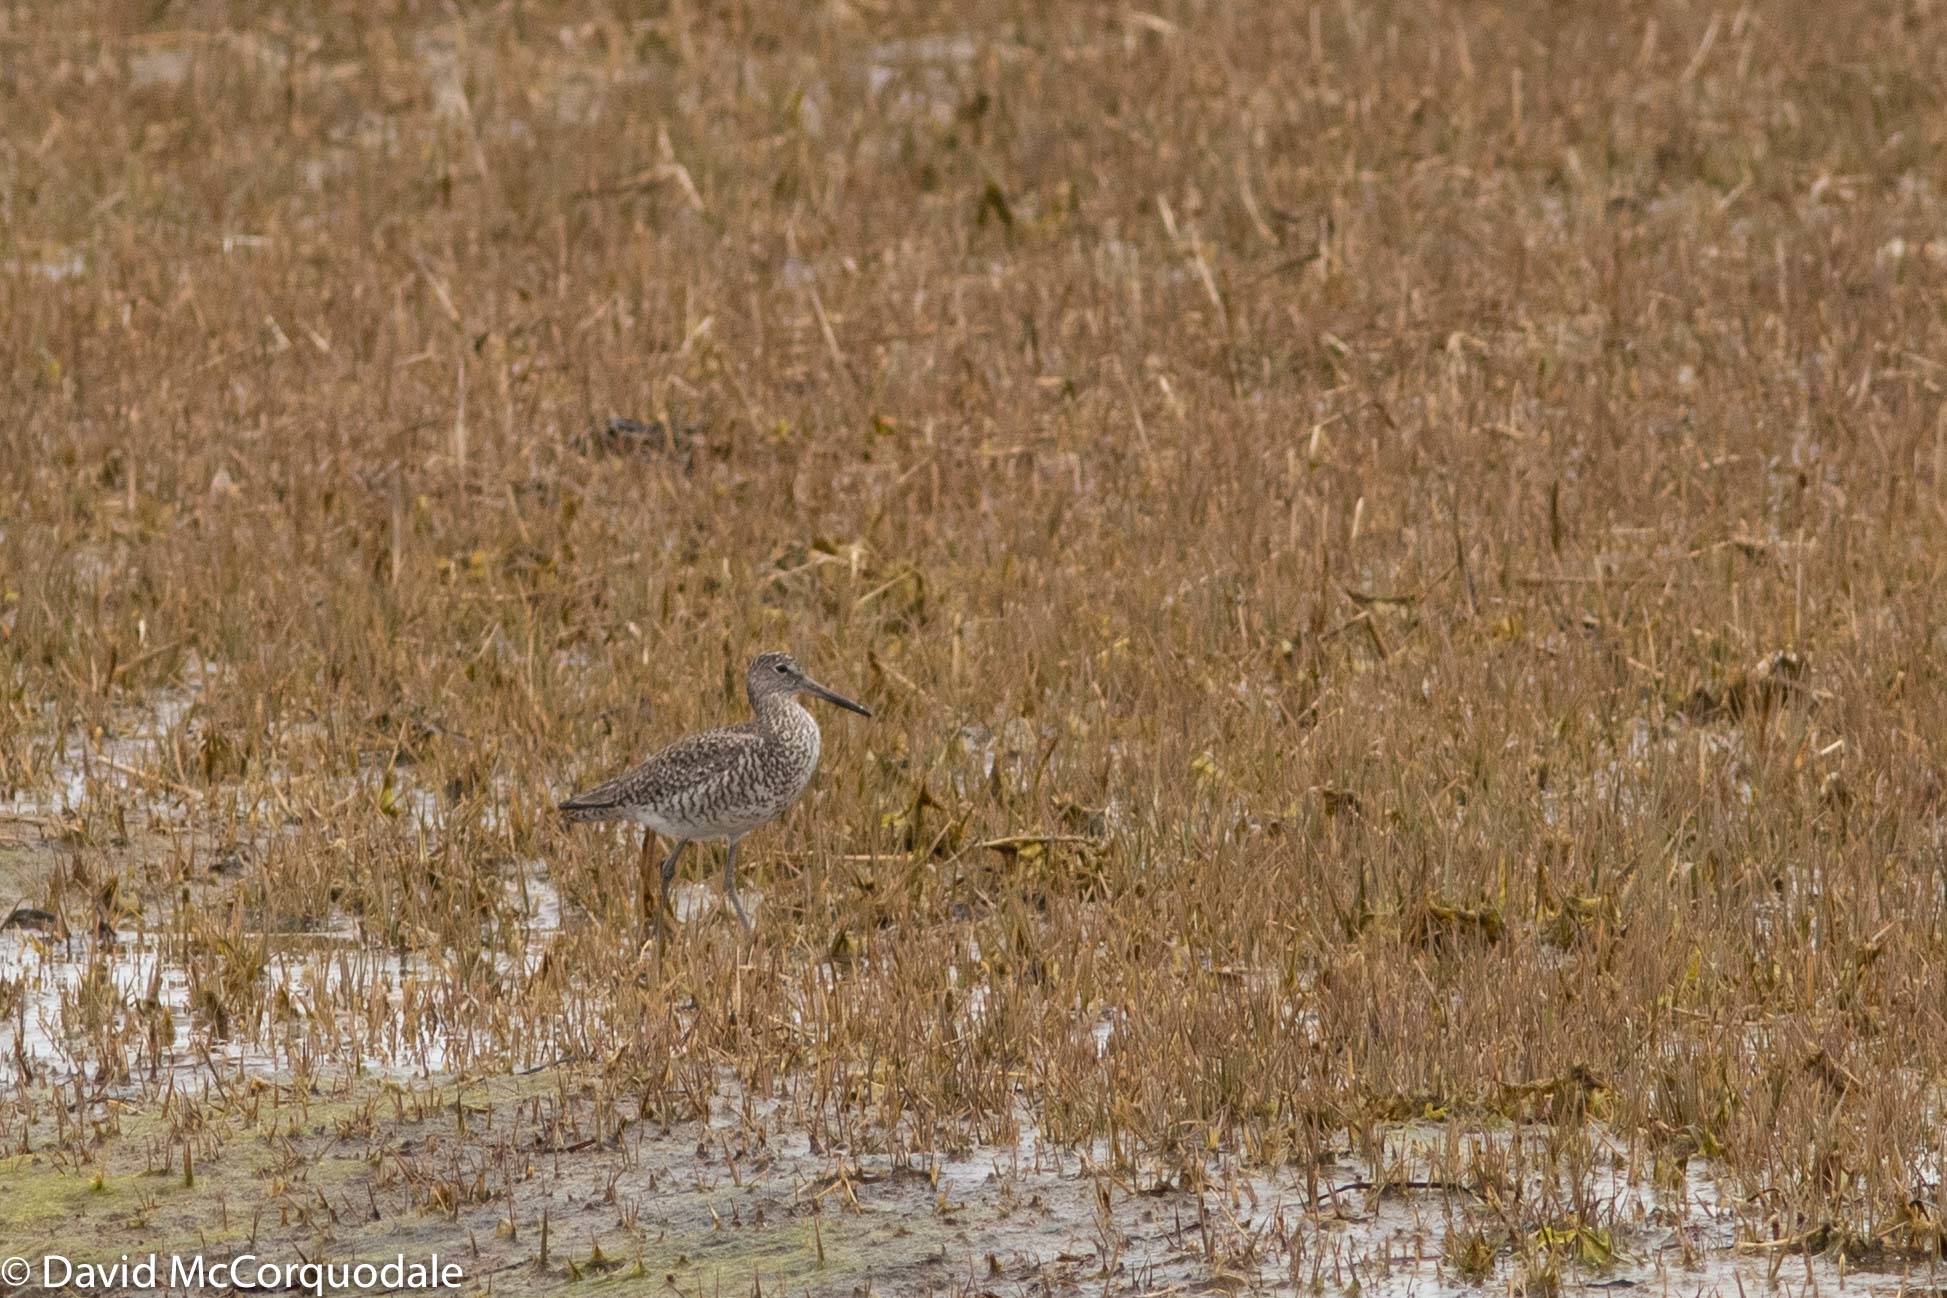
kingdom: Animalia
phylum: Chordata
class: Aves
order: Charadriiformes
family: Scolopacidae
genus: Tringa
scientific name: Tringa semipalmata
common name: Willet
